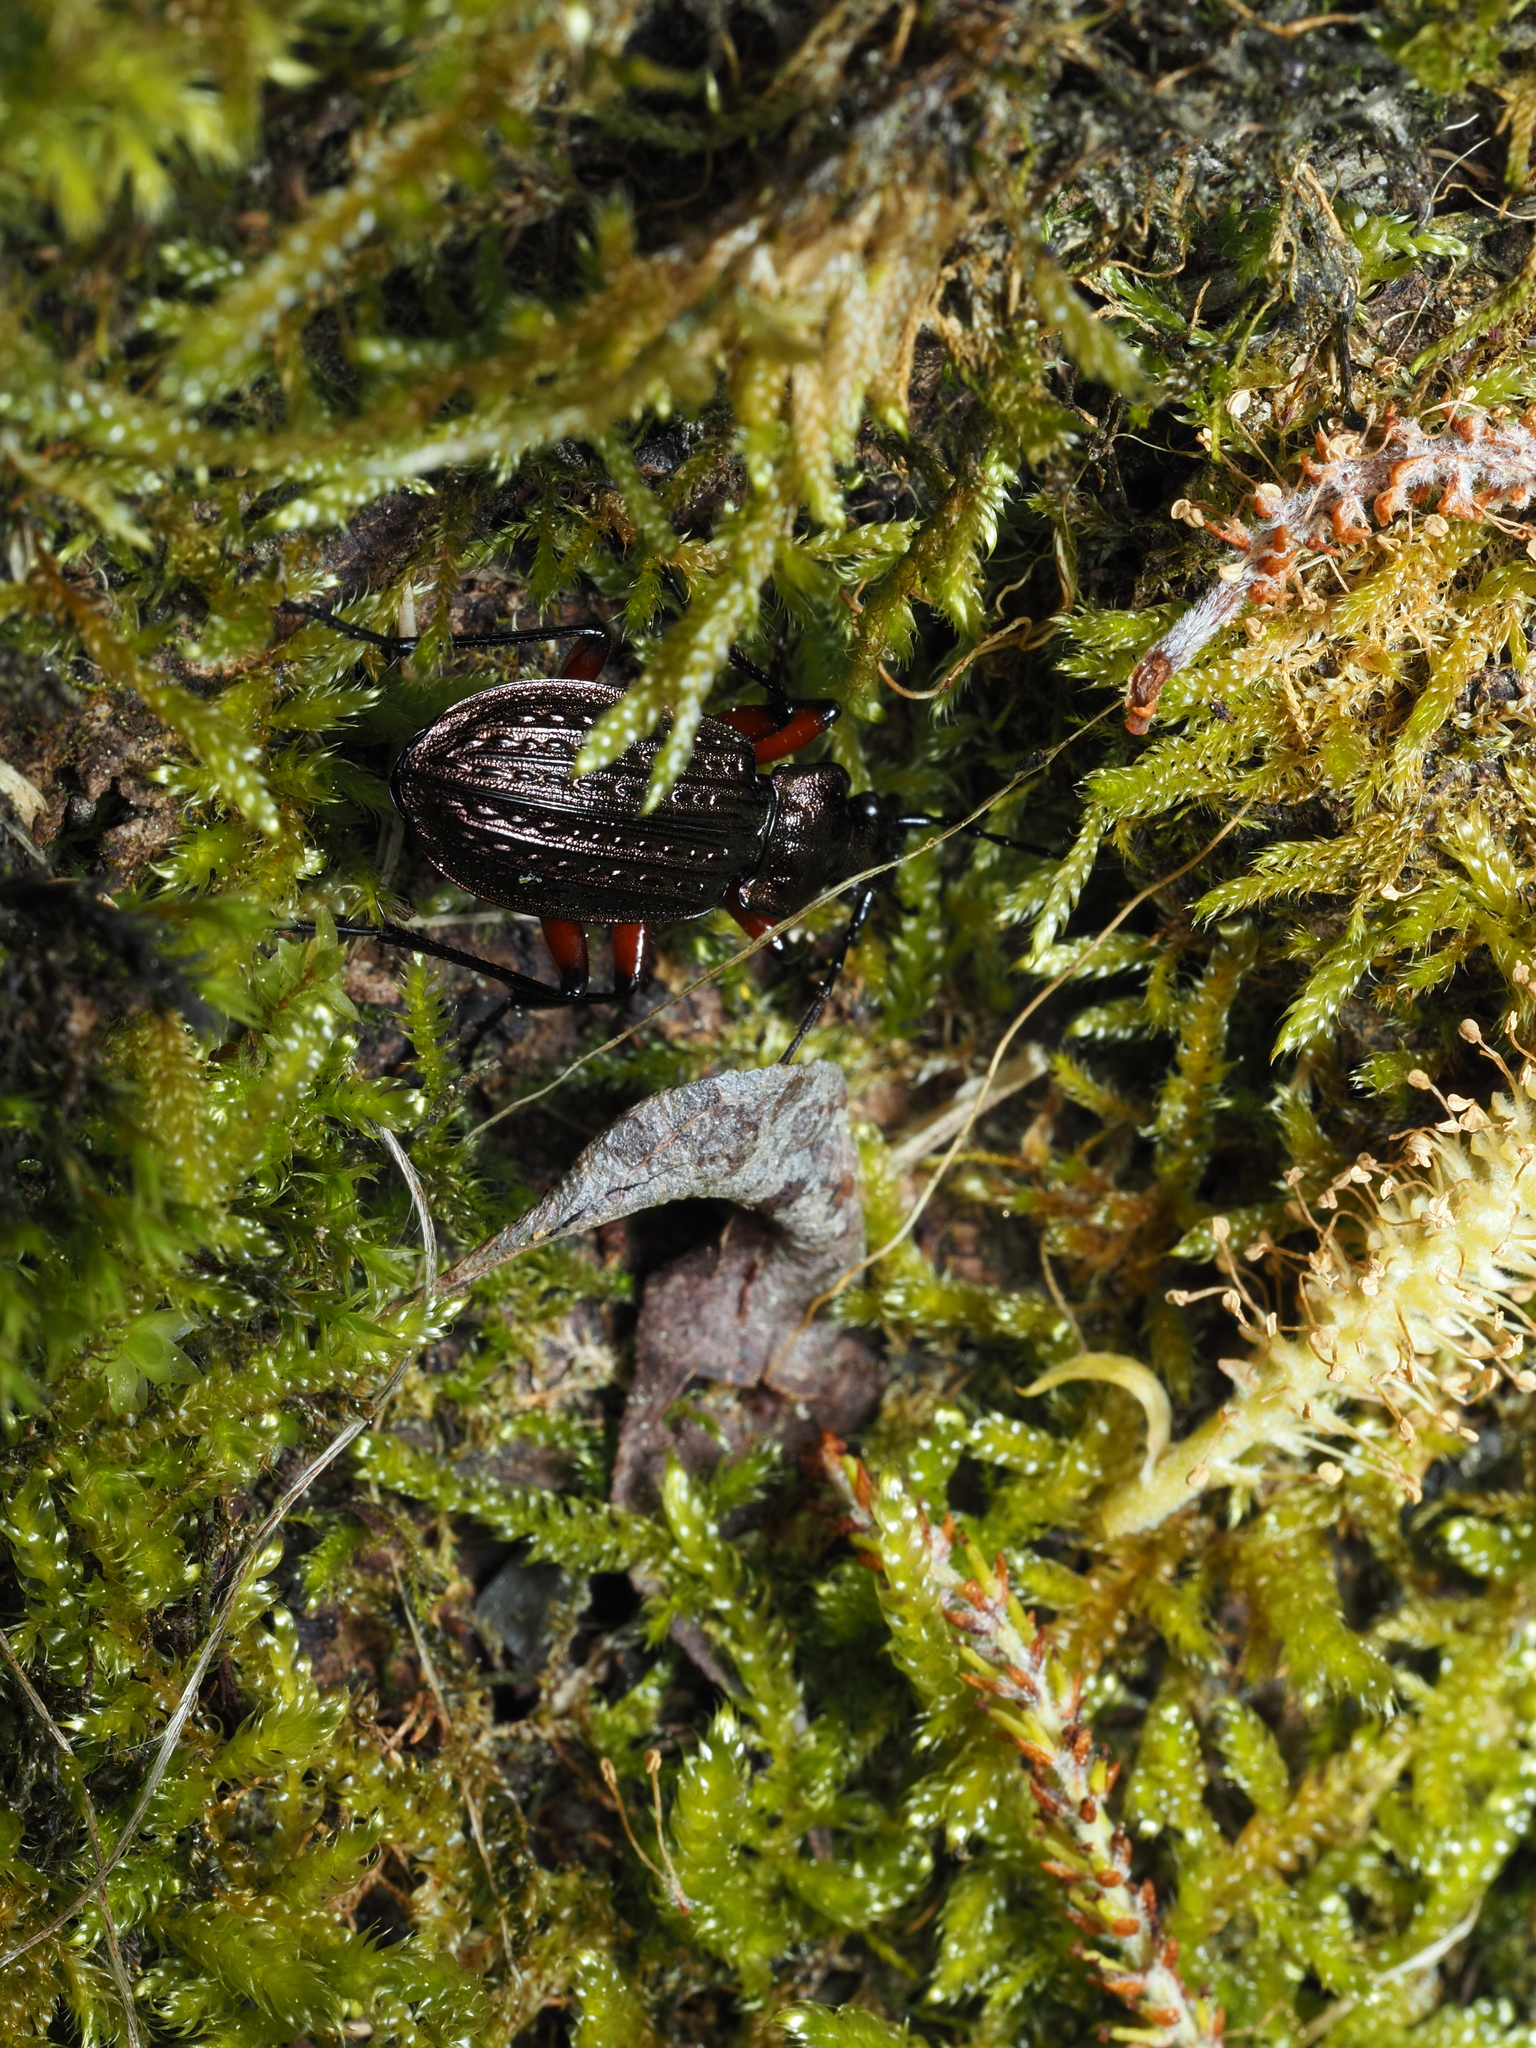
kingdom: Animalia
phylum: Arthropoda
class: Insecta
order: Coleoptera
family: Carabidae
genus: Carabus
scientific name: Carabus ulrichii
